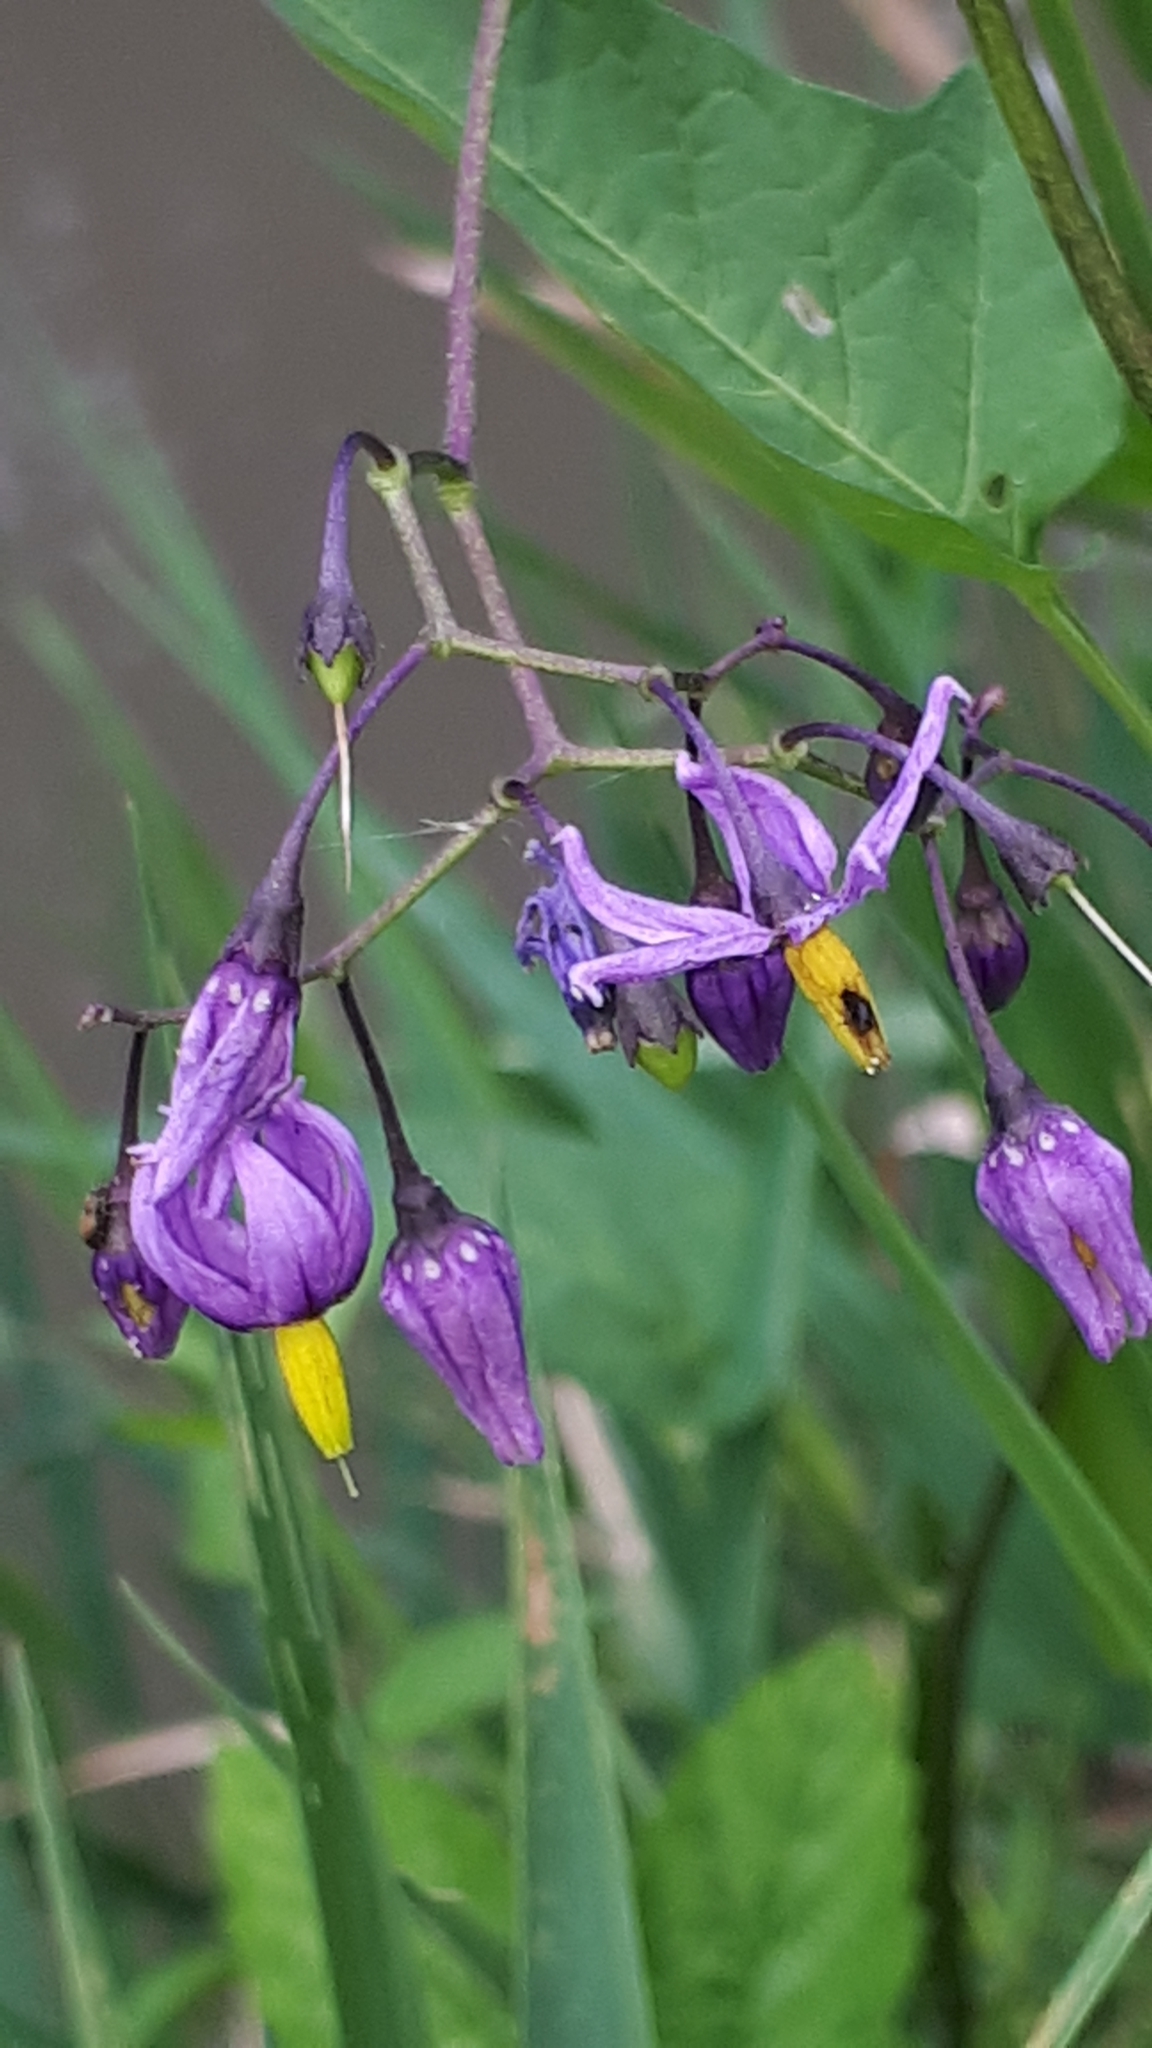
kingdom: Plantae
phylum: Tracheophyta
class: Magnoliopsida
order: Solanales
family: Solanaceae
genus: Solanum
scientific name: Solanum dulcamara
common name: Climbing nightshade
